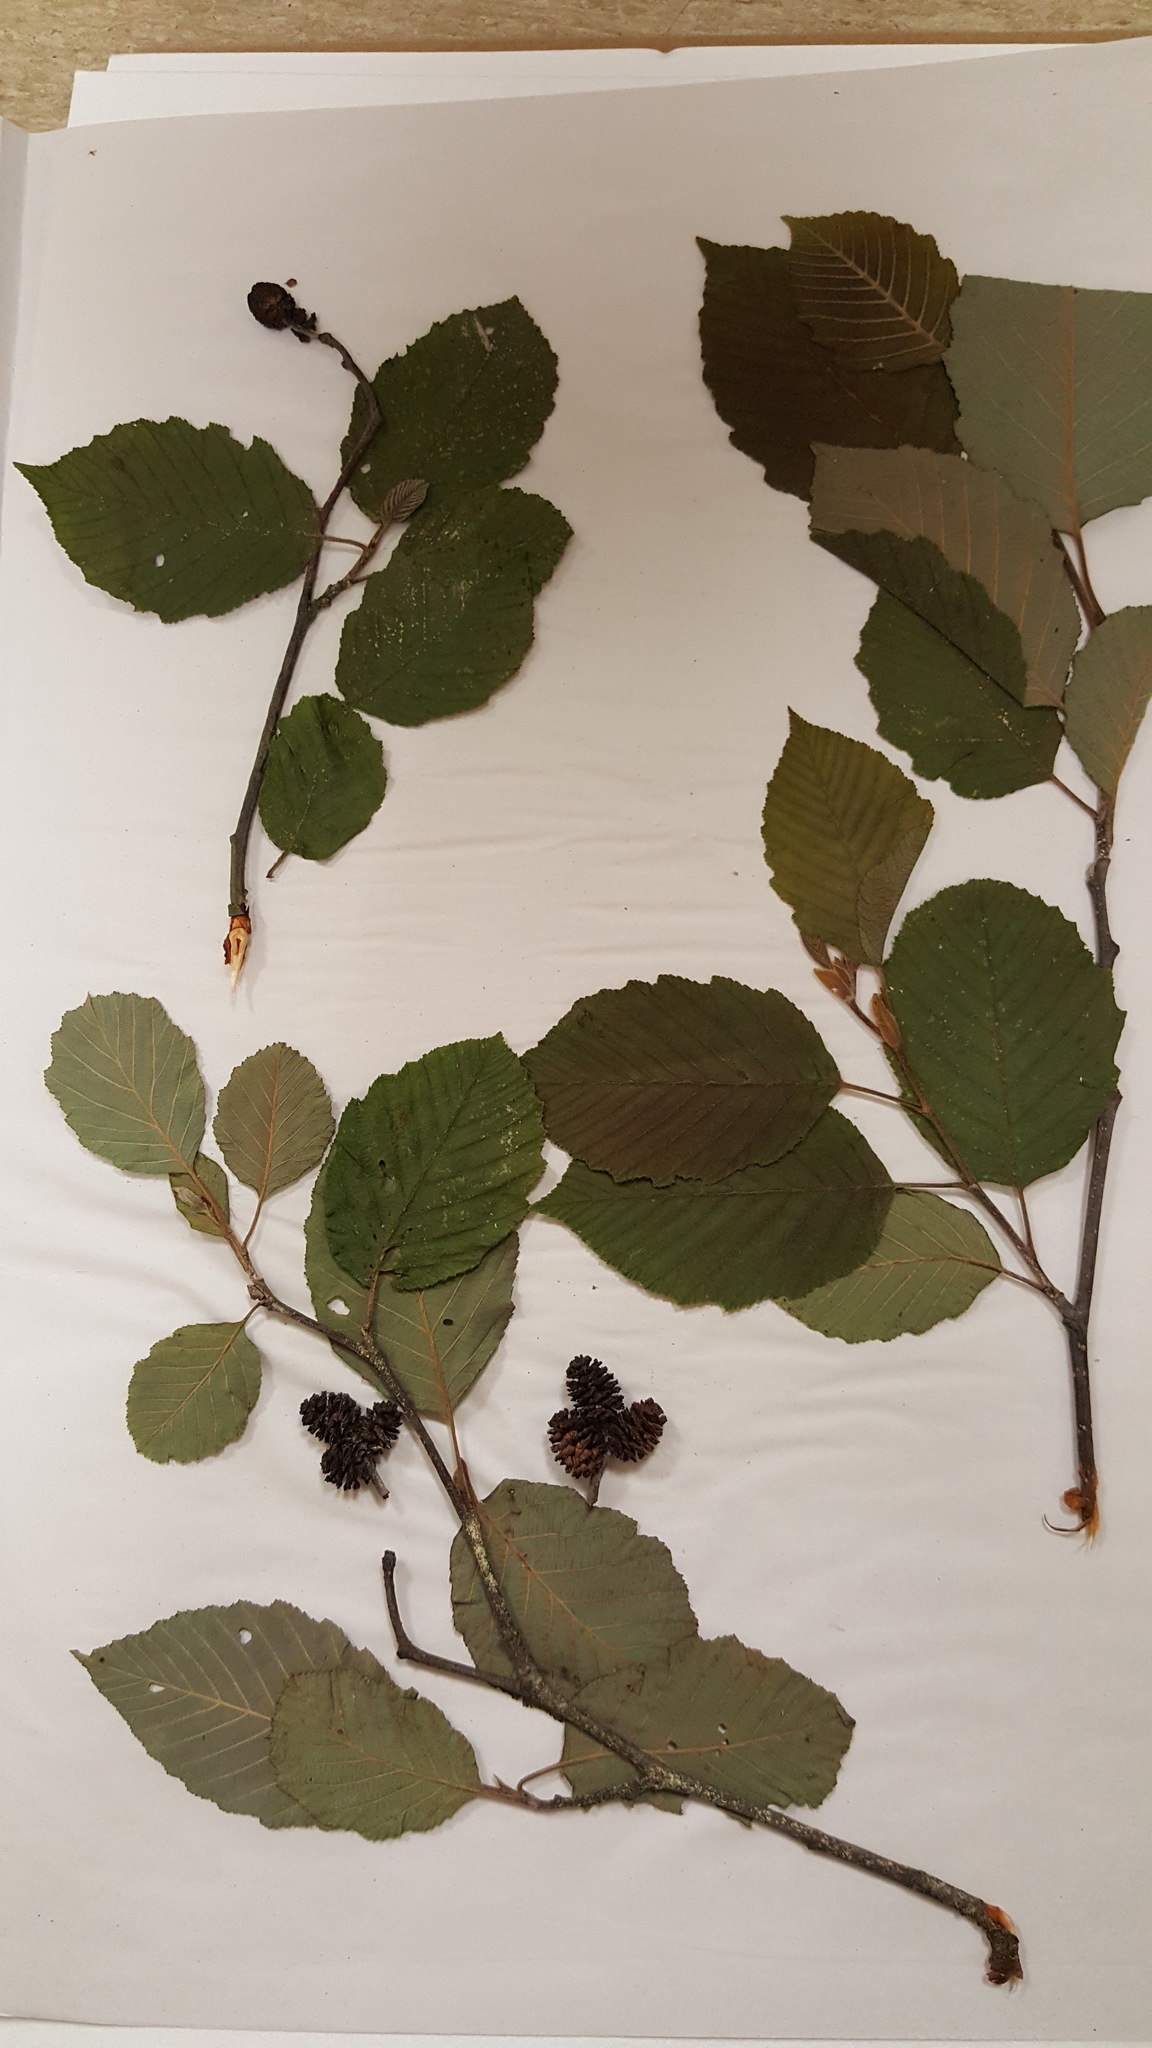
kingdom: Plantae
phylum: Tracheophyta
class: Magnoliopsida
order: Fagales
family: Betulaceae
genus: Alnus
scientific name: Alnus incana
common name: Grey alder
